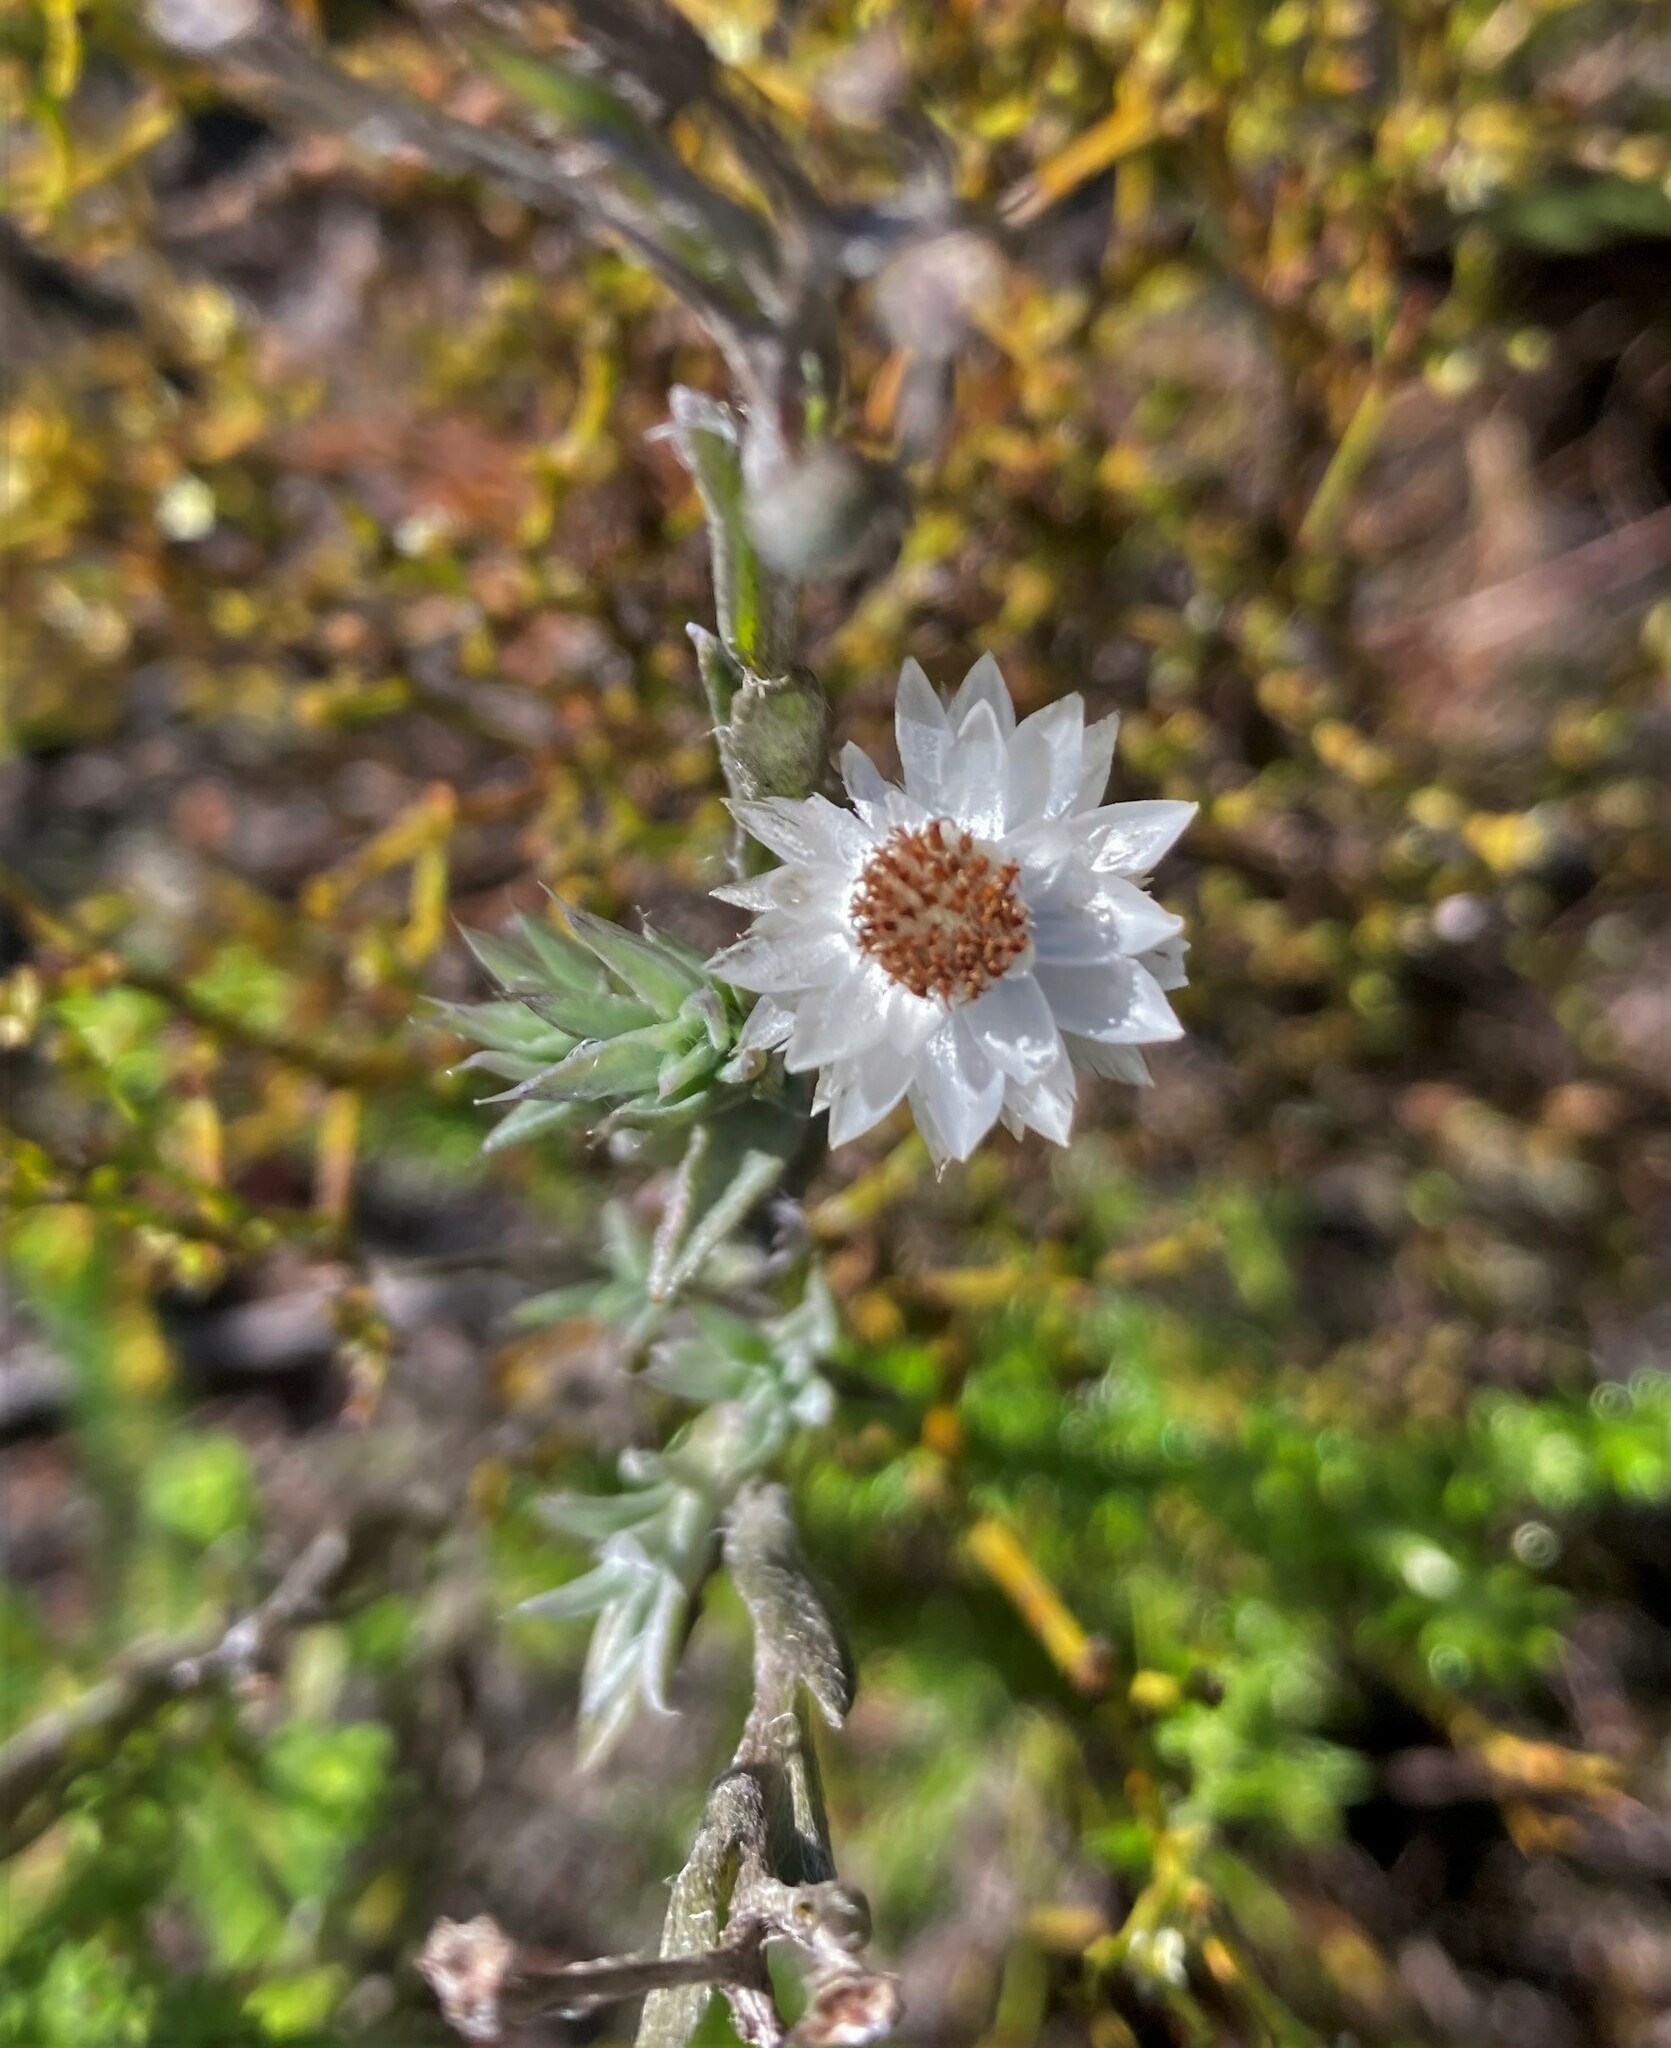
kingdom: Plantae
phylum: Tracheophyta
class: Magnoliopsida
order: Asterales
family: Asteraceae
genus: Syncarpha
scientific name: Syncarpha canescens
